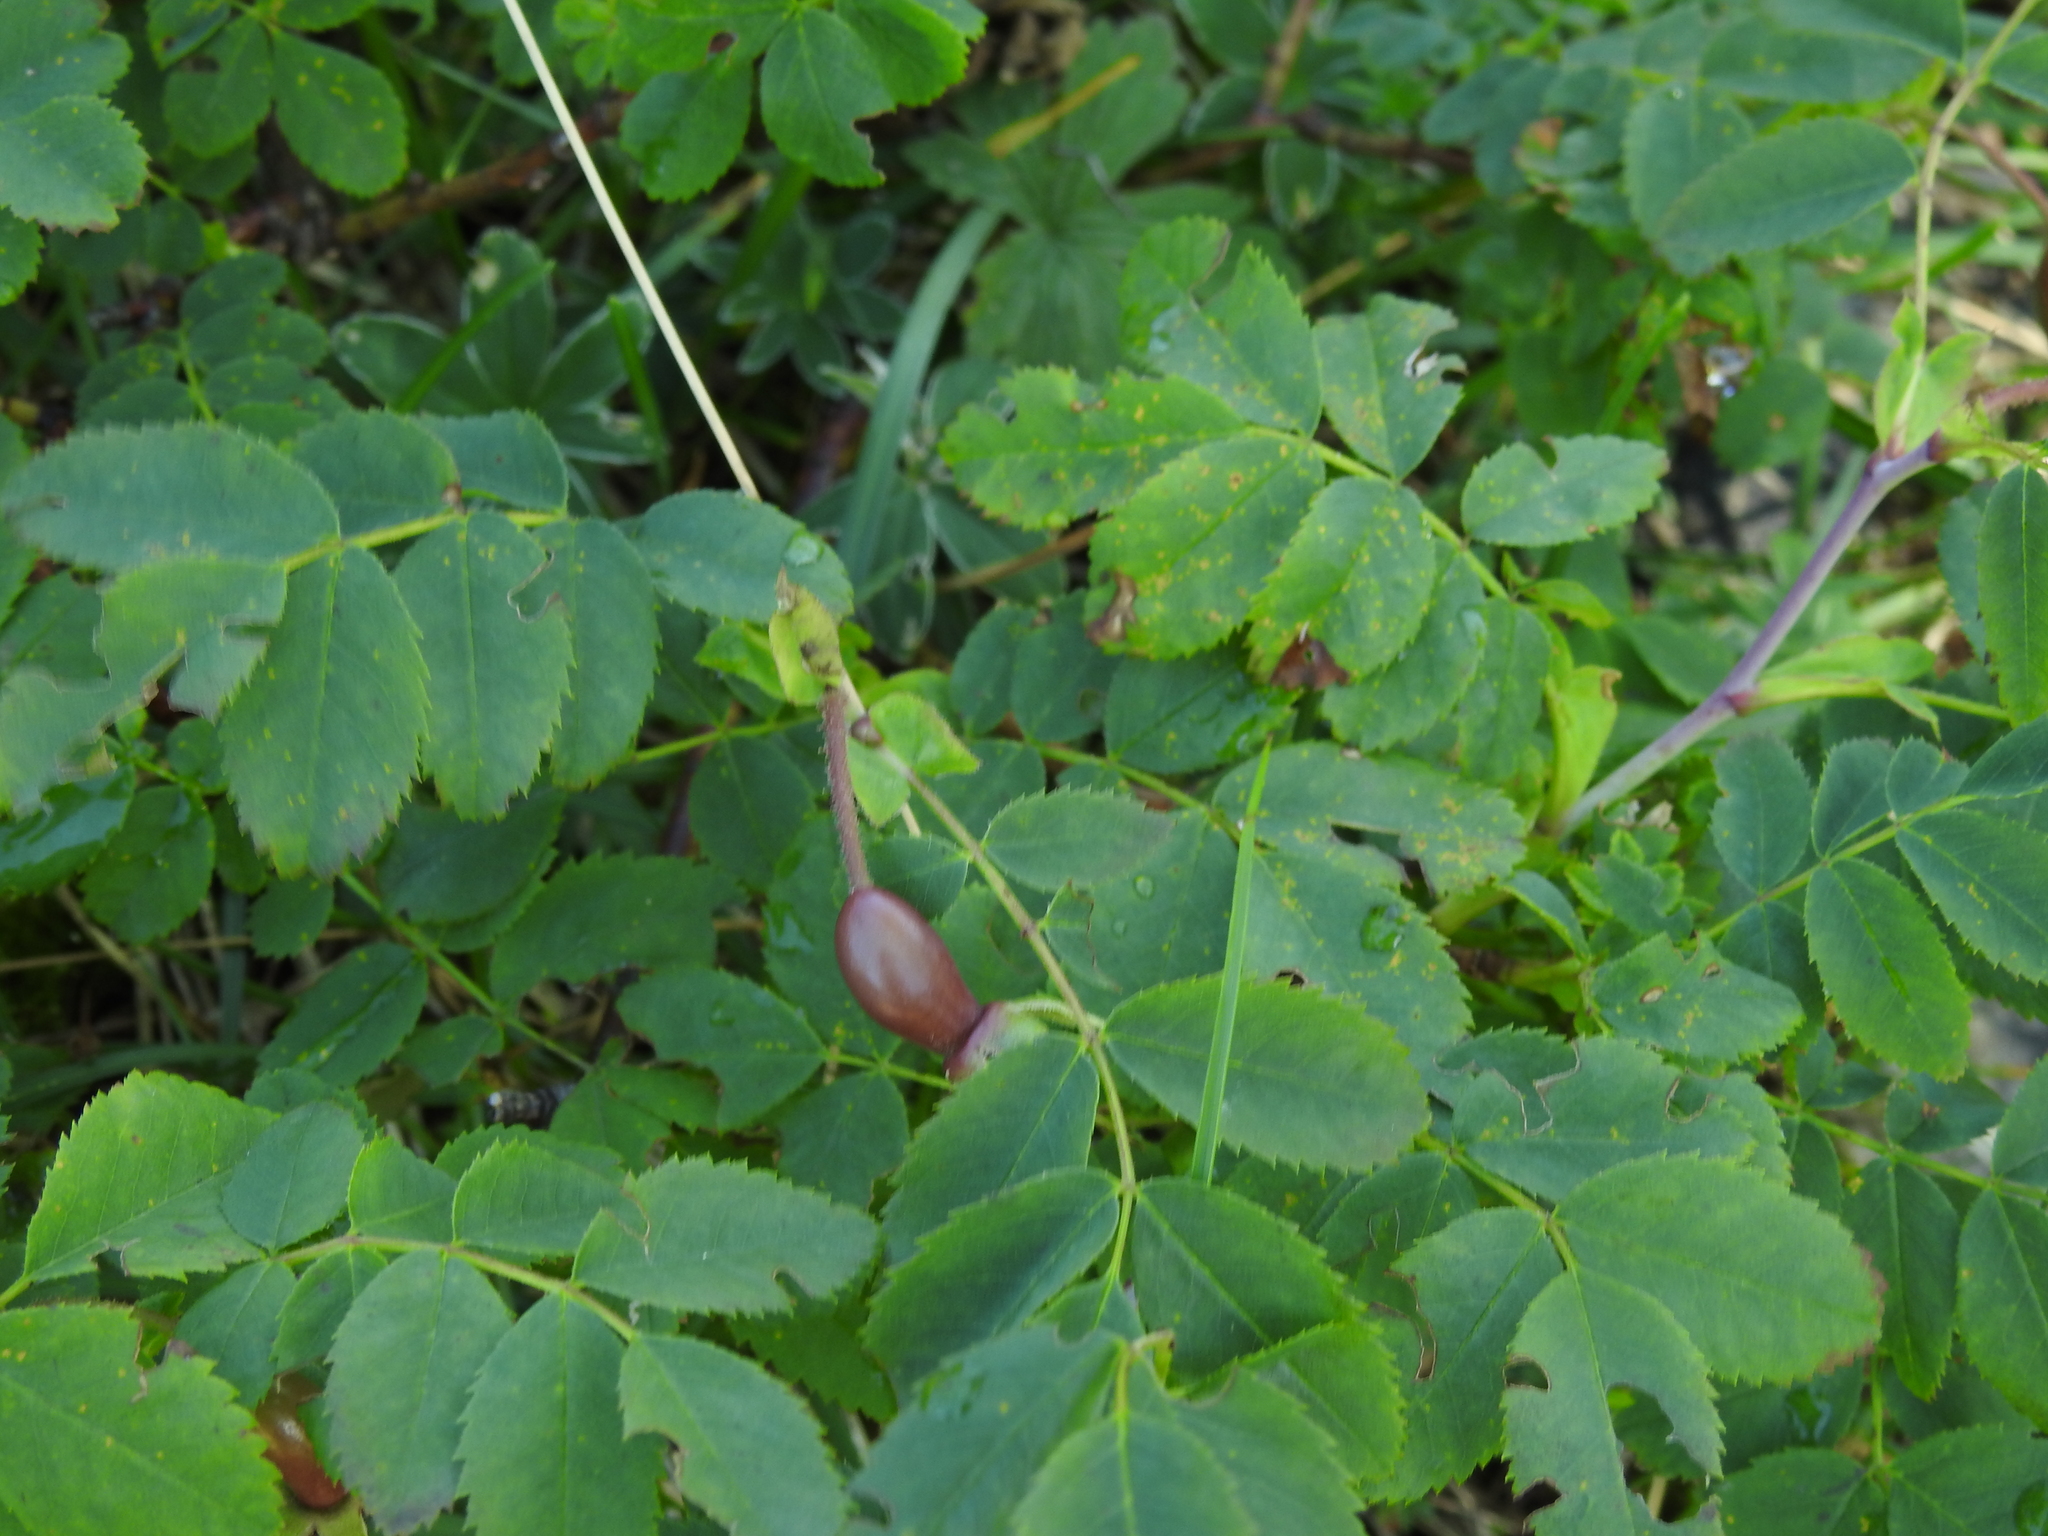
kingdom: Plantae
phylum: Tracheophyta
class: Magnoliopsida
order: Rosales
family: Rosaceae
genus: Rosa
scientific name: Rosa pendulina
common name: Alpine rose
